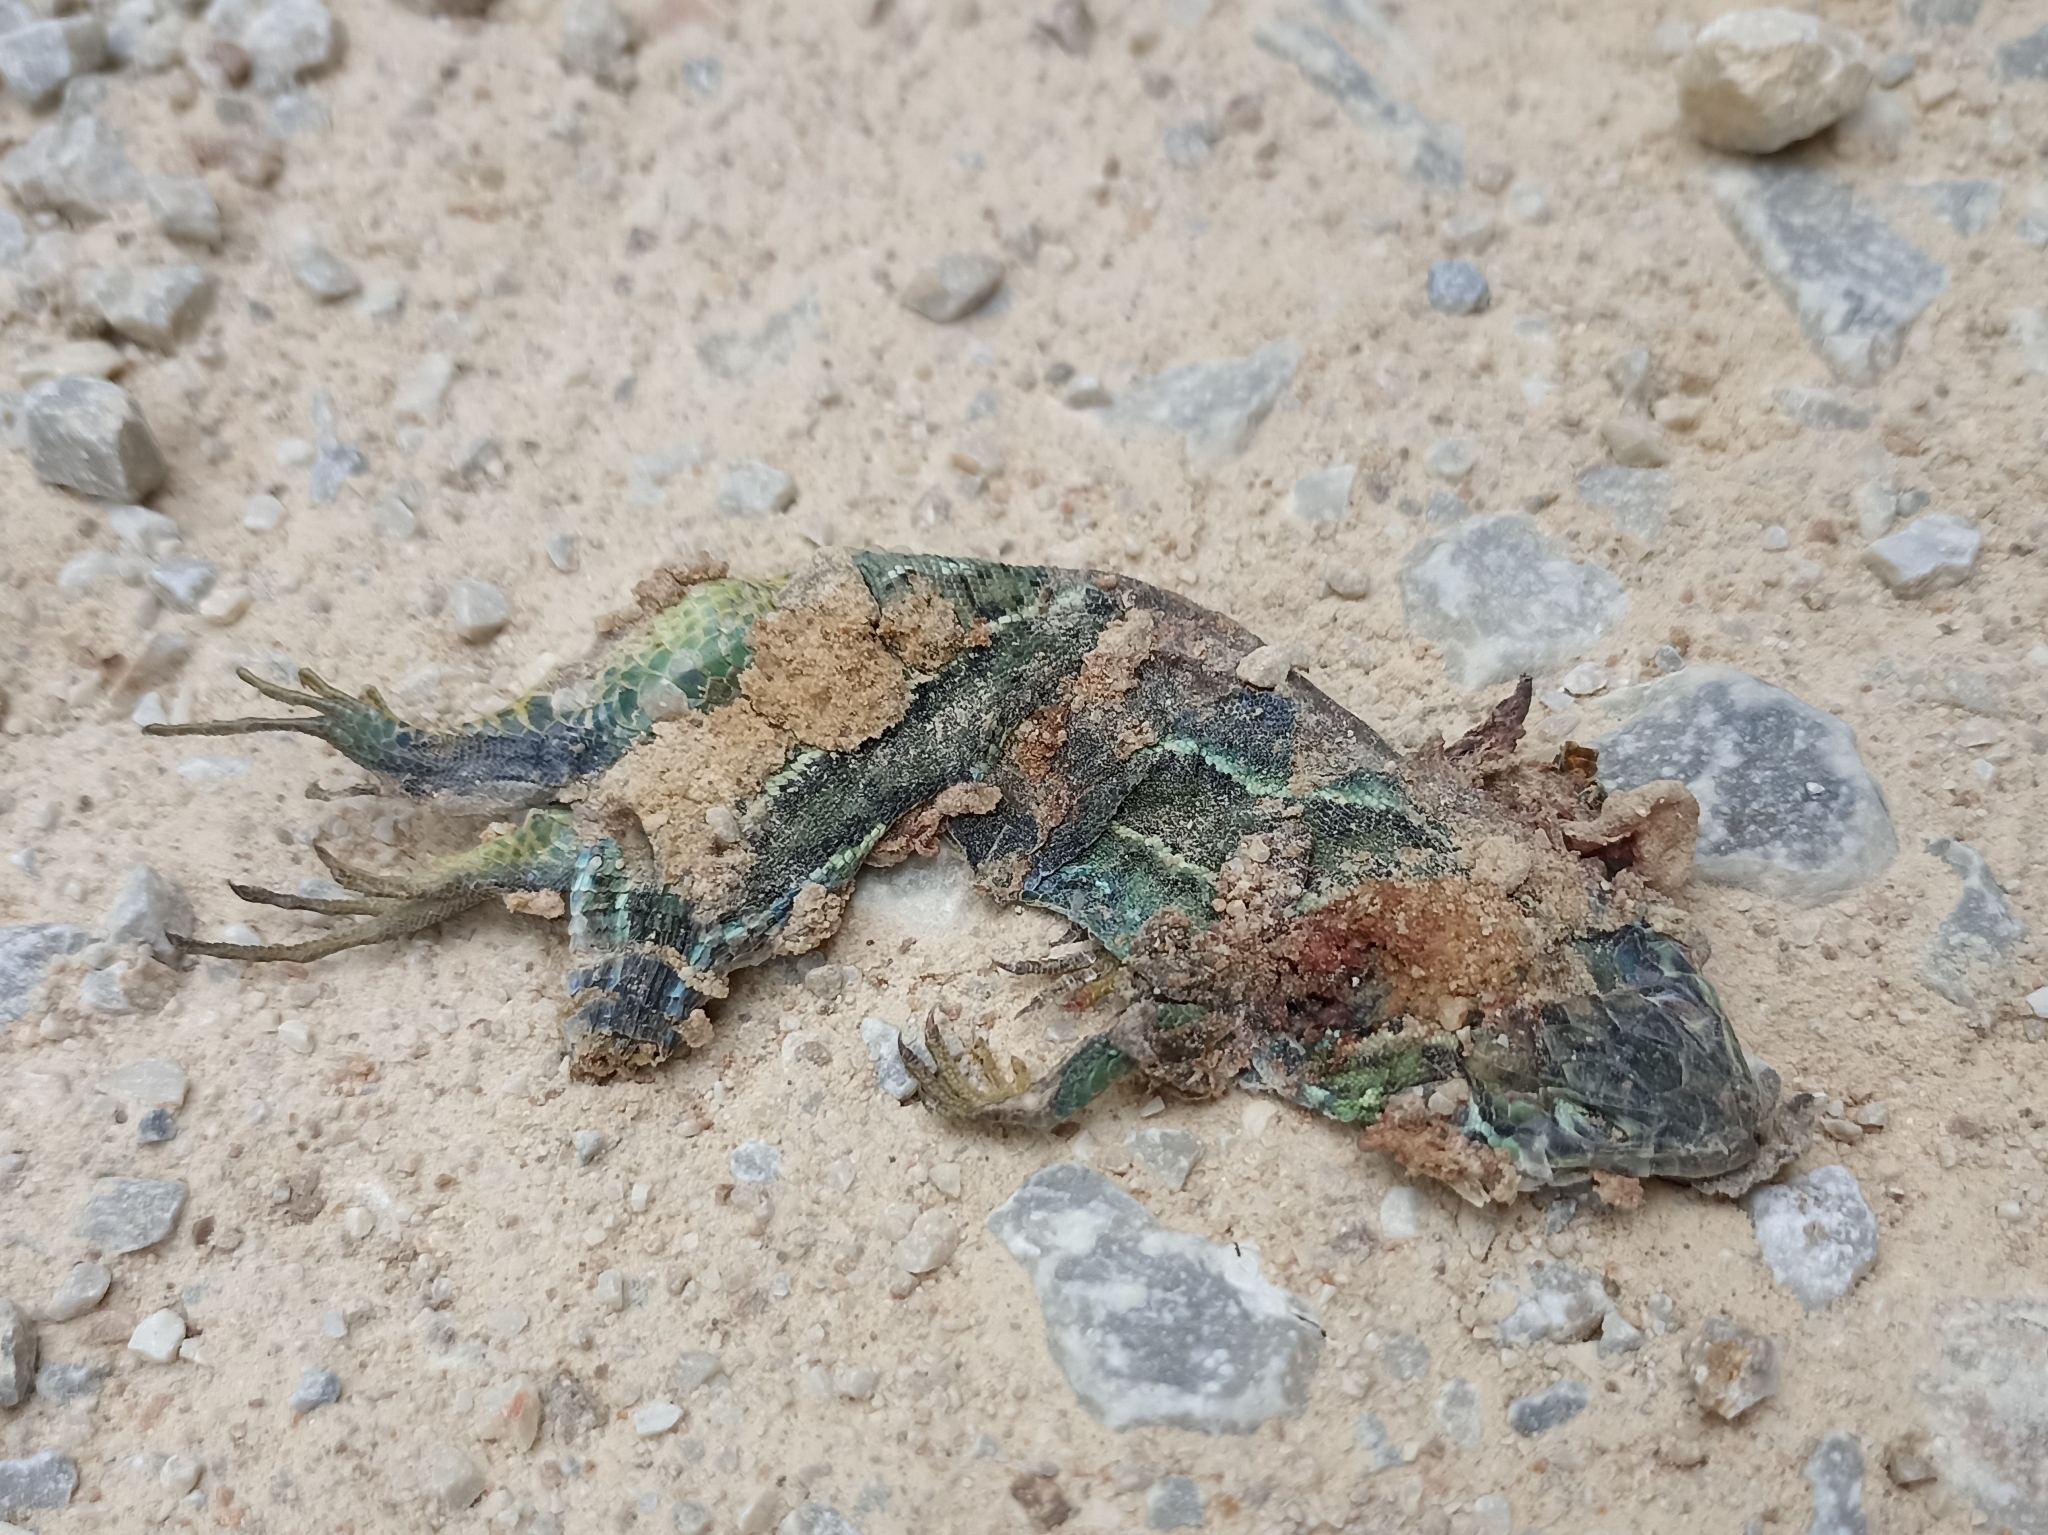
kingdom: Animalia
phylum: Chordata
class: Squamata
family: Lacertidae
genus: Lacerta
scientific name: Lacerta bilineata
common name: Western green lizard
